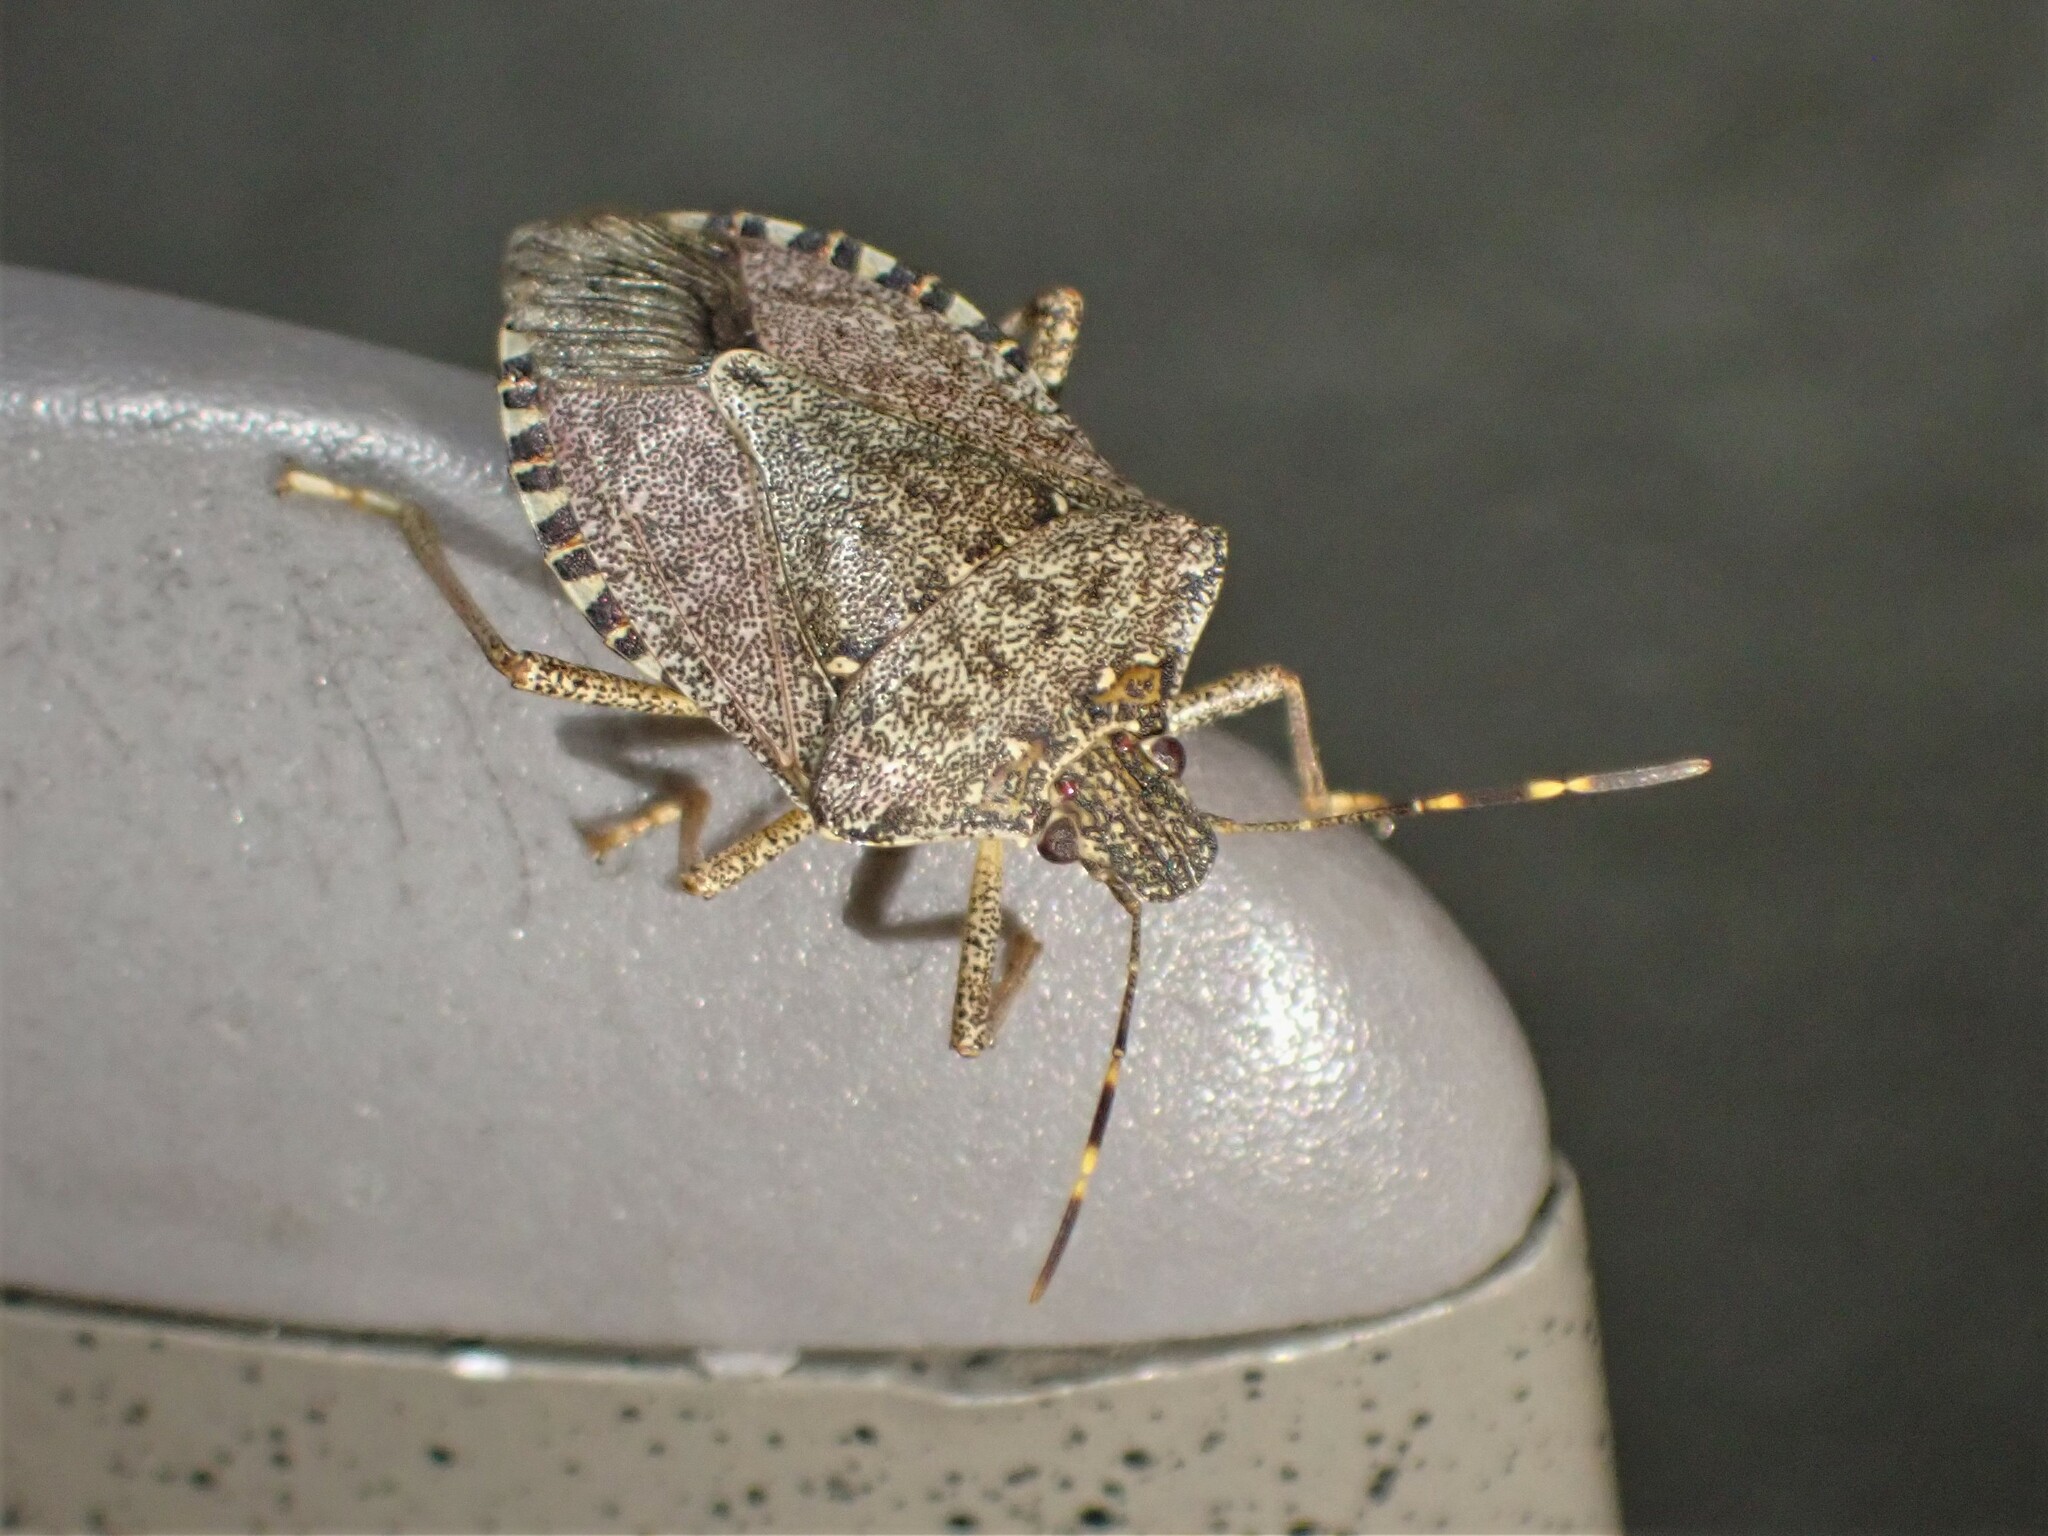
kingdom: Animalia
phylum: Arthropoda
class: Insecta
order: Hemiptera
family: Pentatomidae
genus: Halyomorpha
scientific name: Halyomorpha halys
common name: Brown marmorated stink bug
